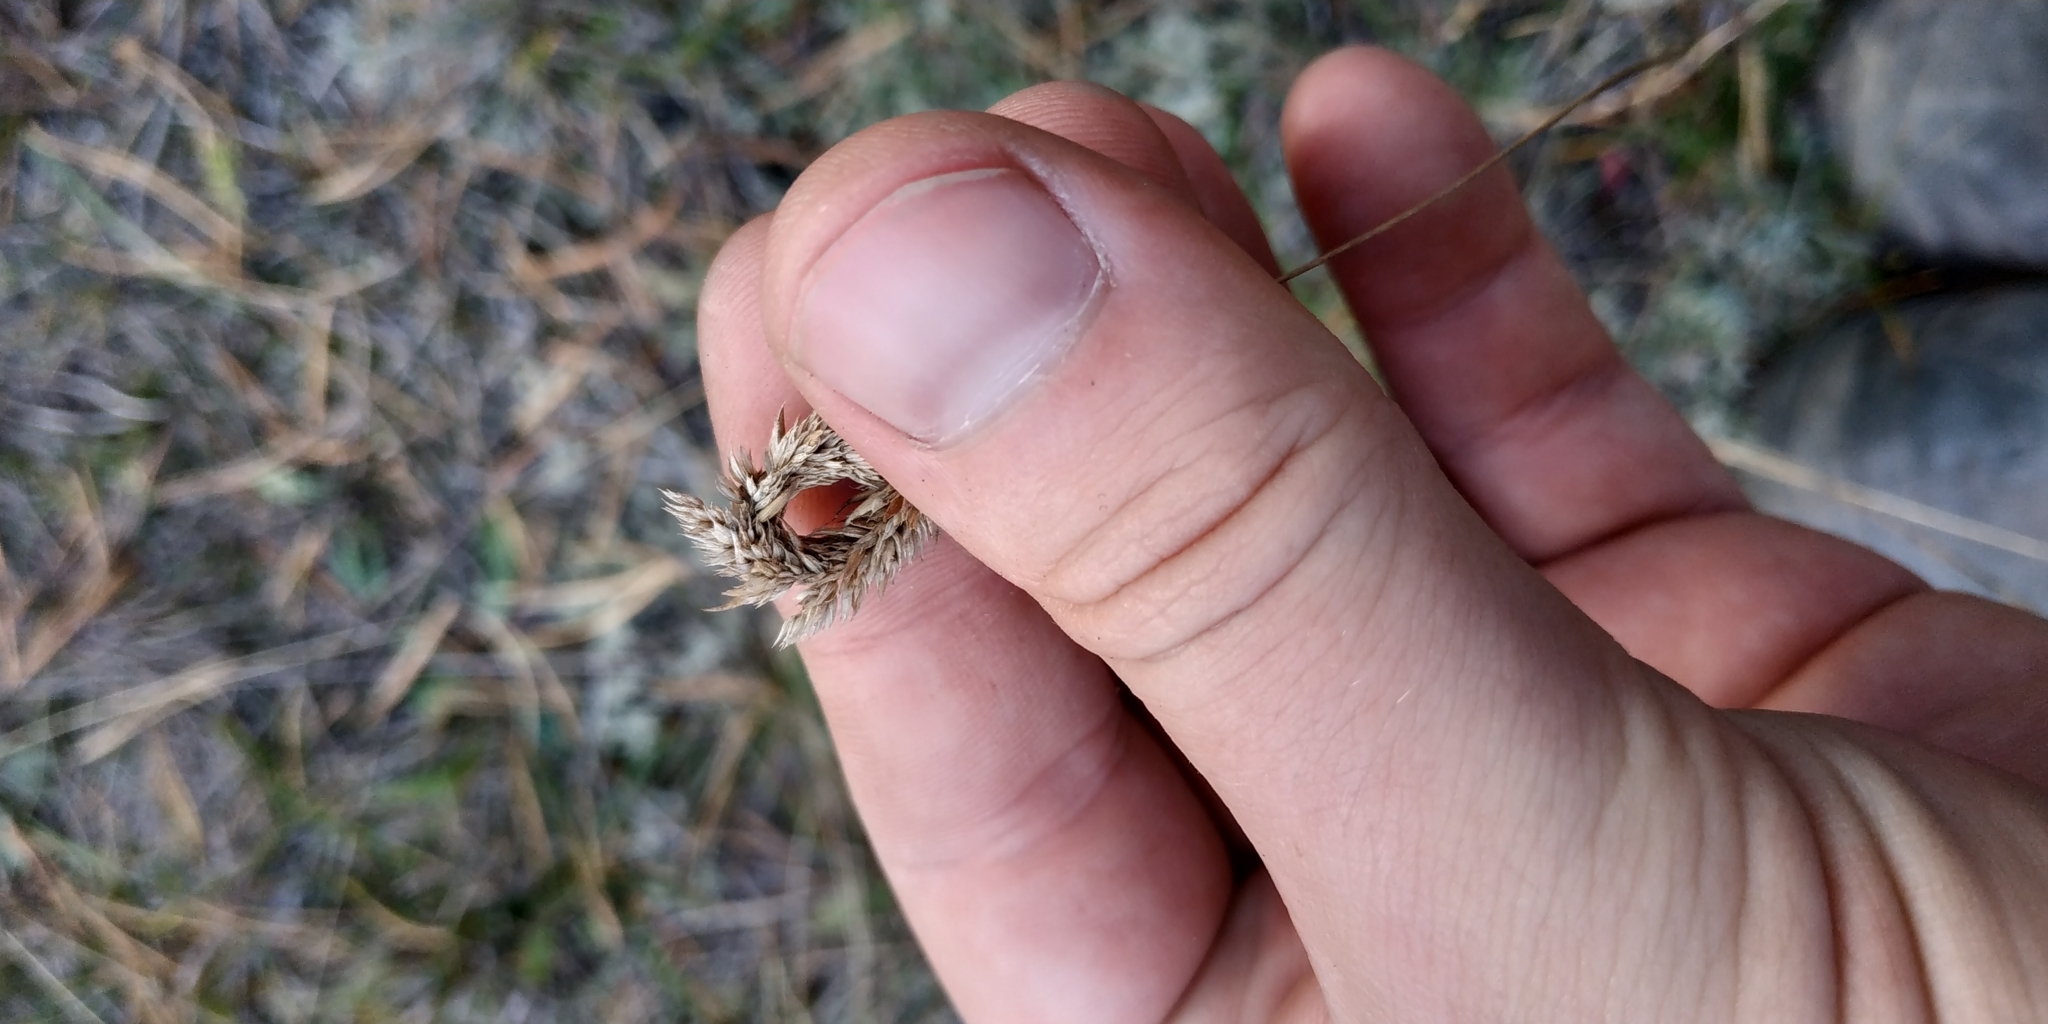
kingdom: Plantae
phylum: Tracheophyta
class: Liliopsida
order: Poales
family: Poaceae
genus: Phleum
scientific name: Phleum phleoides
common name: Purple-stem cat's-tail
